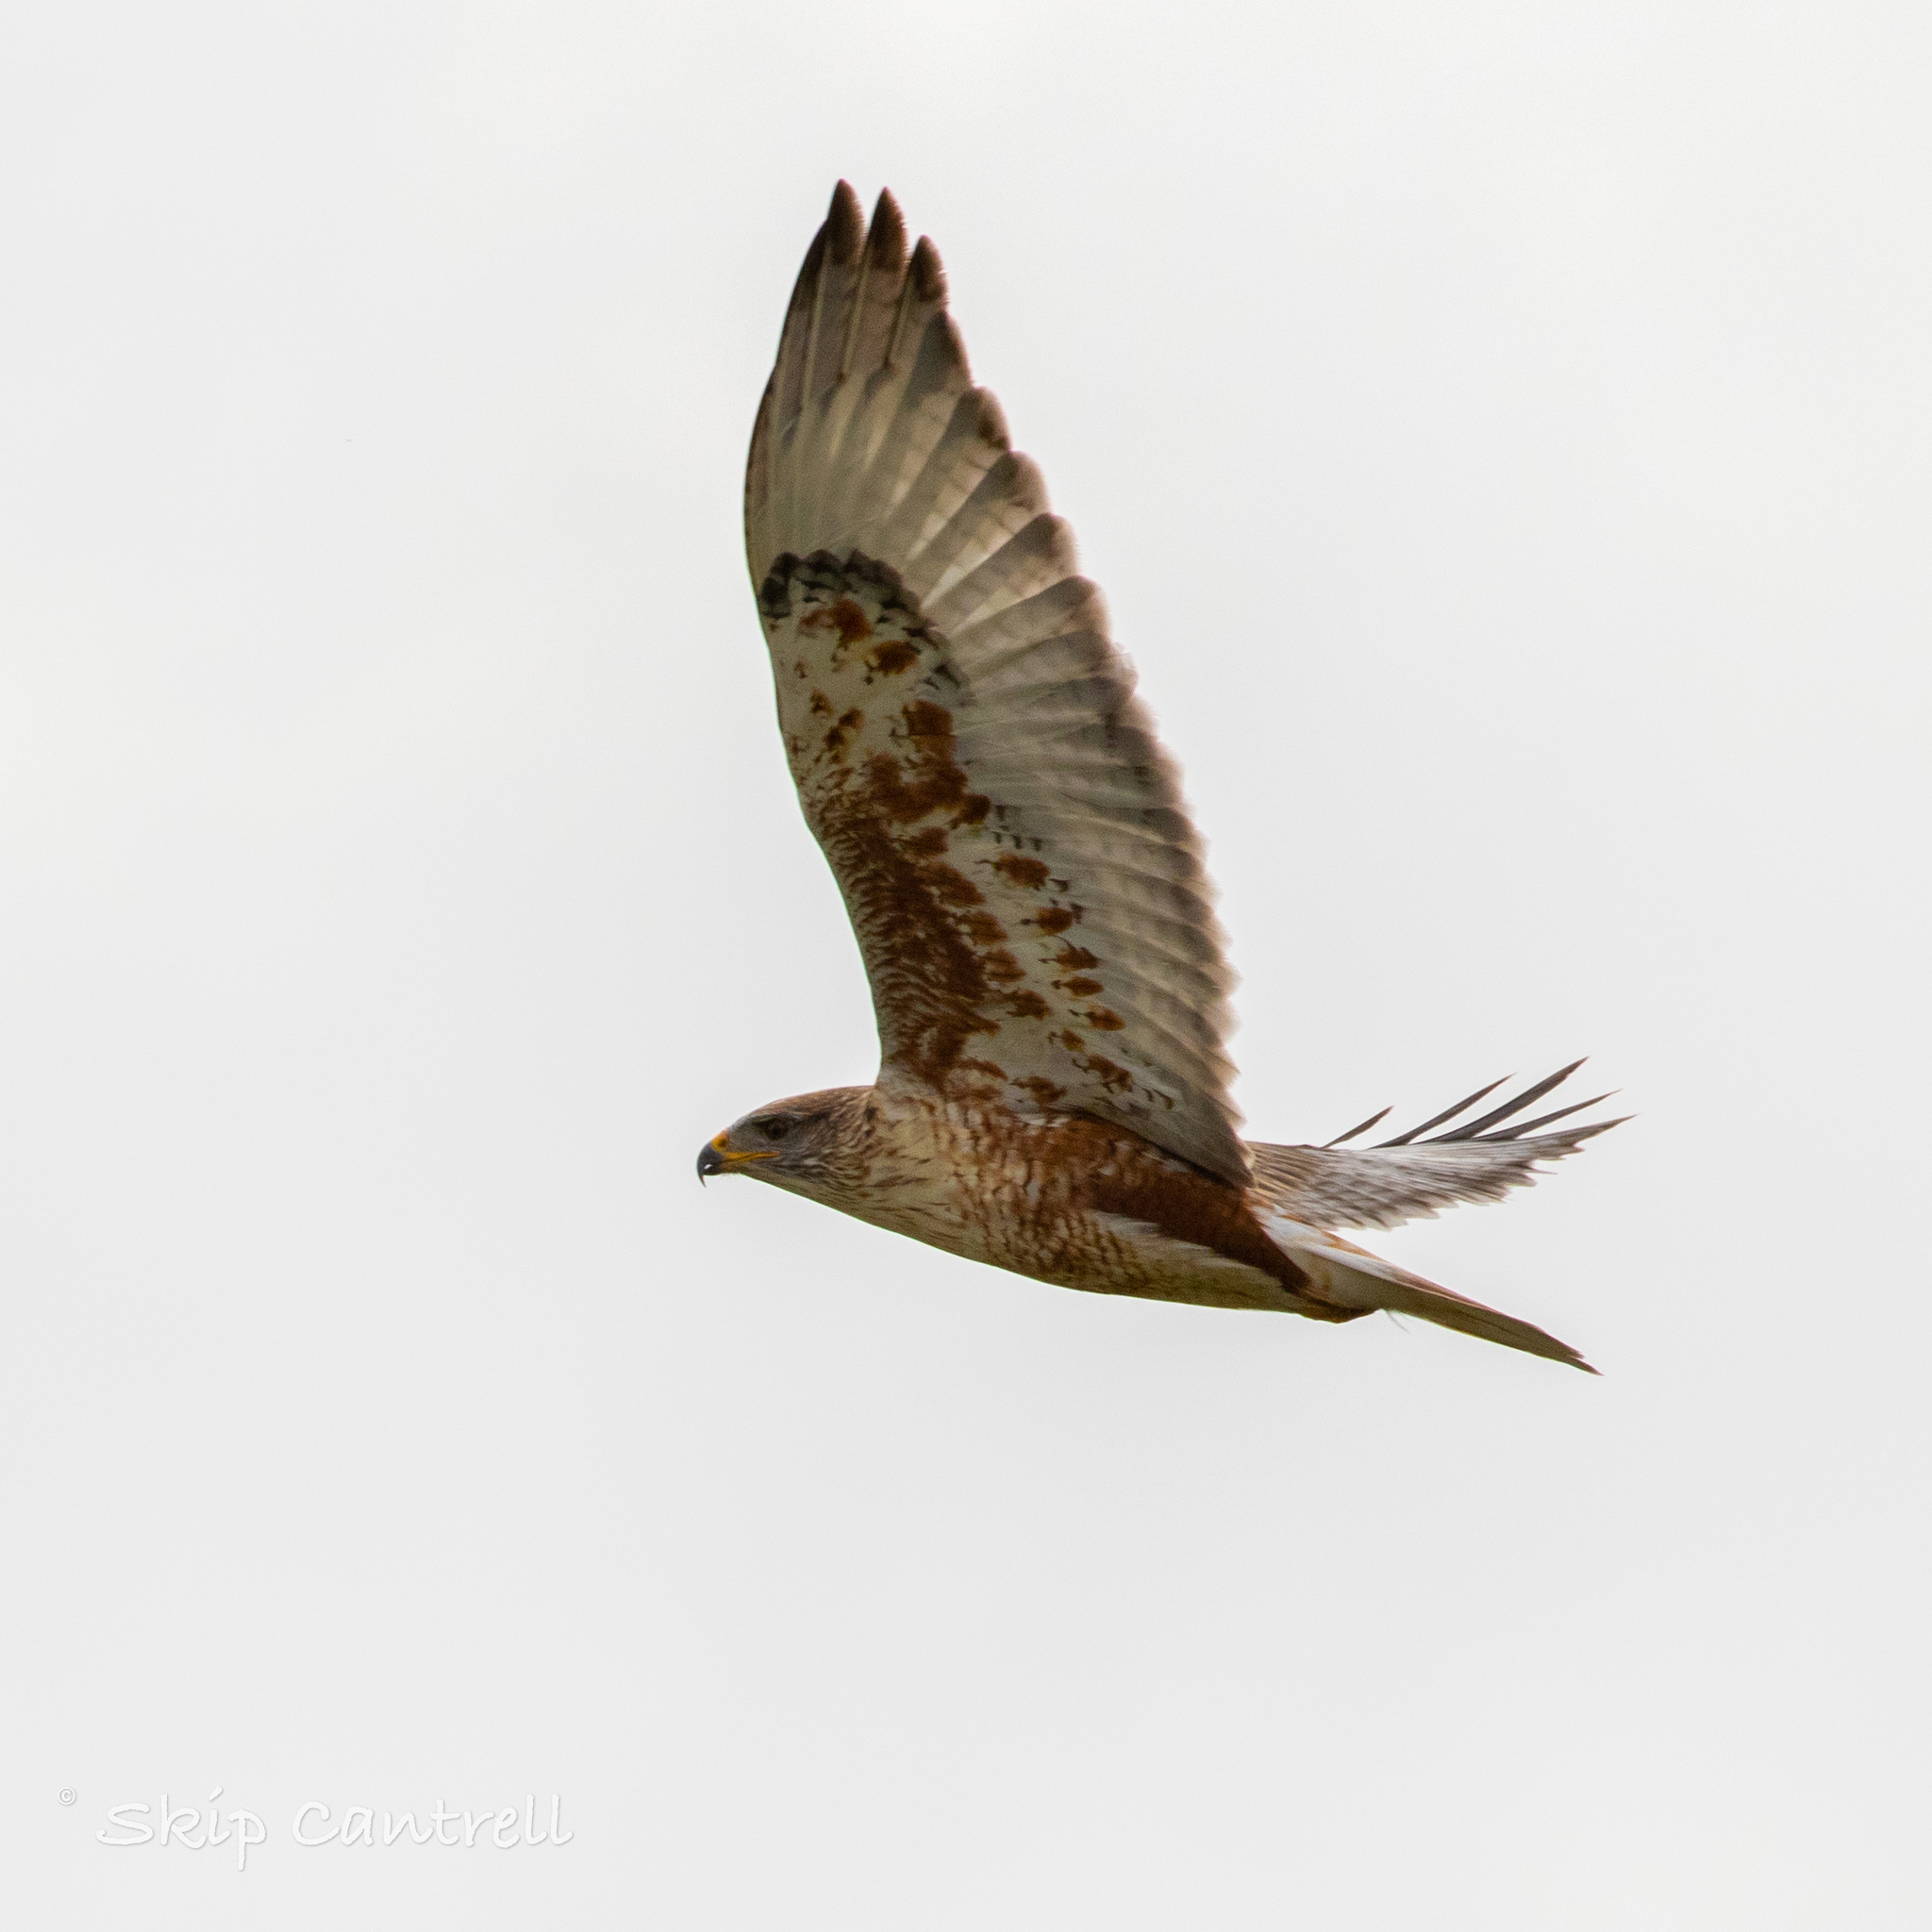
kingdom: Animalia
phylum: Chordata
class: Aves
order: Accipitriformes
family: Accipitridae
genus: Buteo
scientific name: Buteo regalis
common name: Ferruginous hawk
